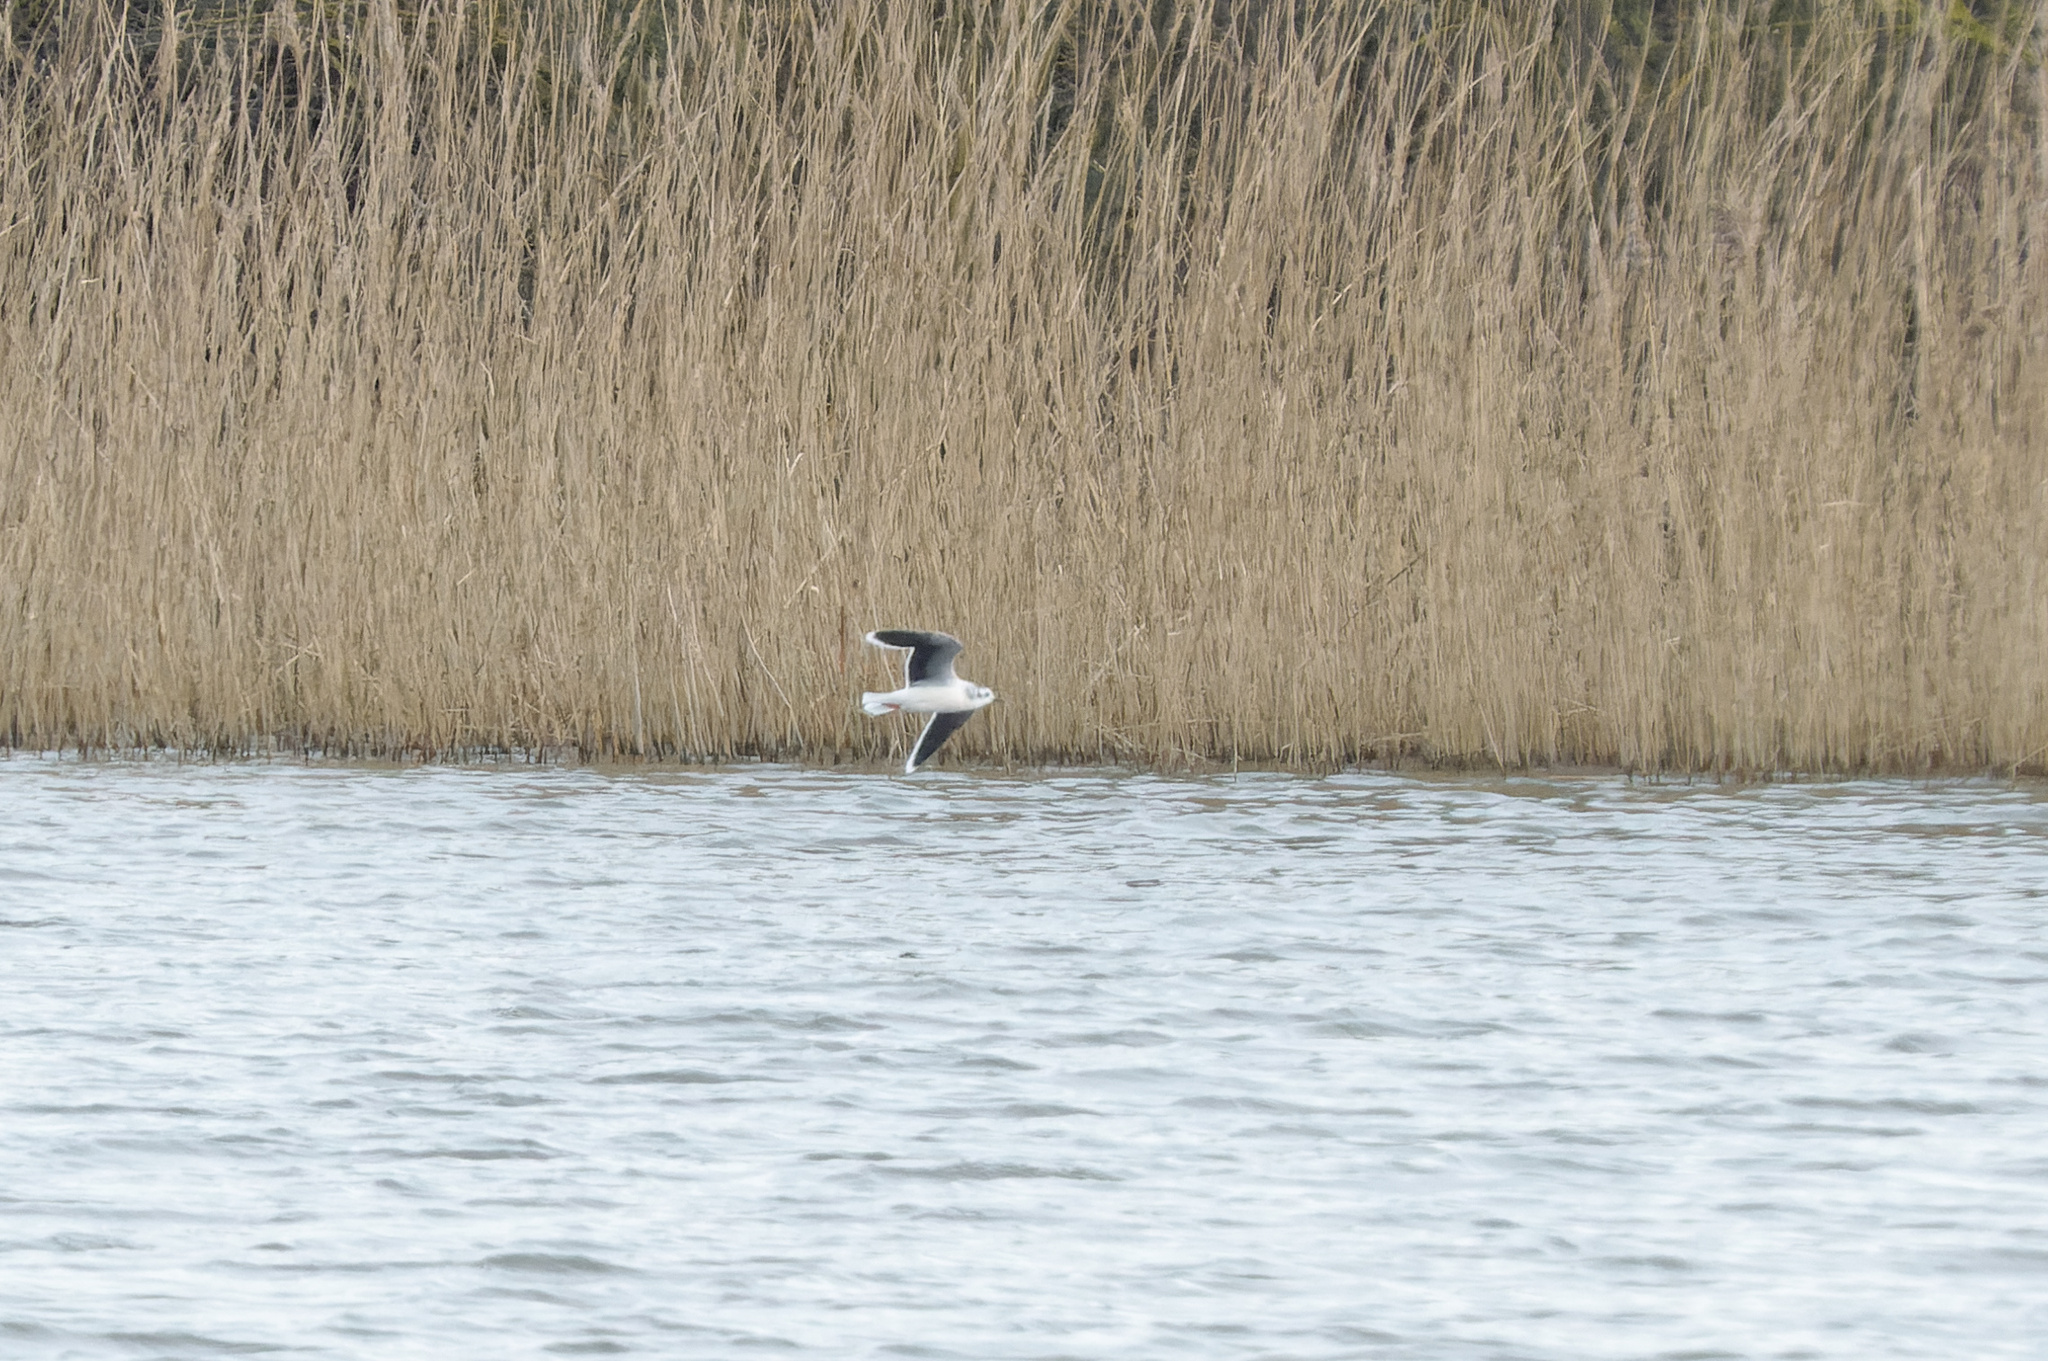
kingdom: Animalia
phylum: Chordata
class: Aves
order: Charadriiformes
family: Laridae
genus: Hydrocoloeus
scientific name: Hydrocoloeus minutus
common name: Little gull
